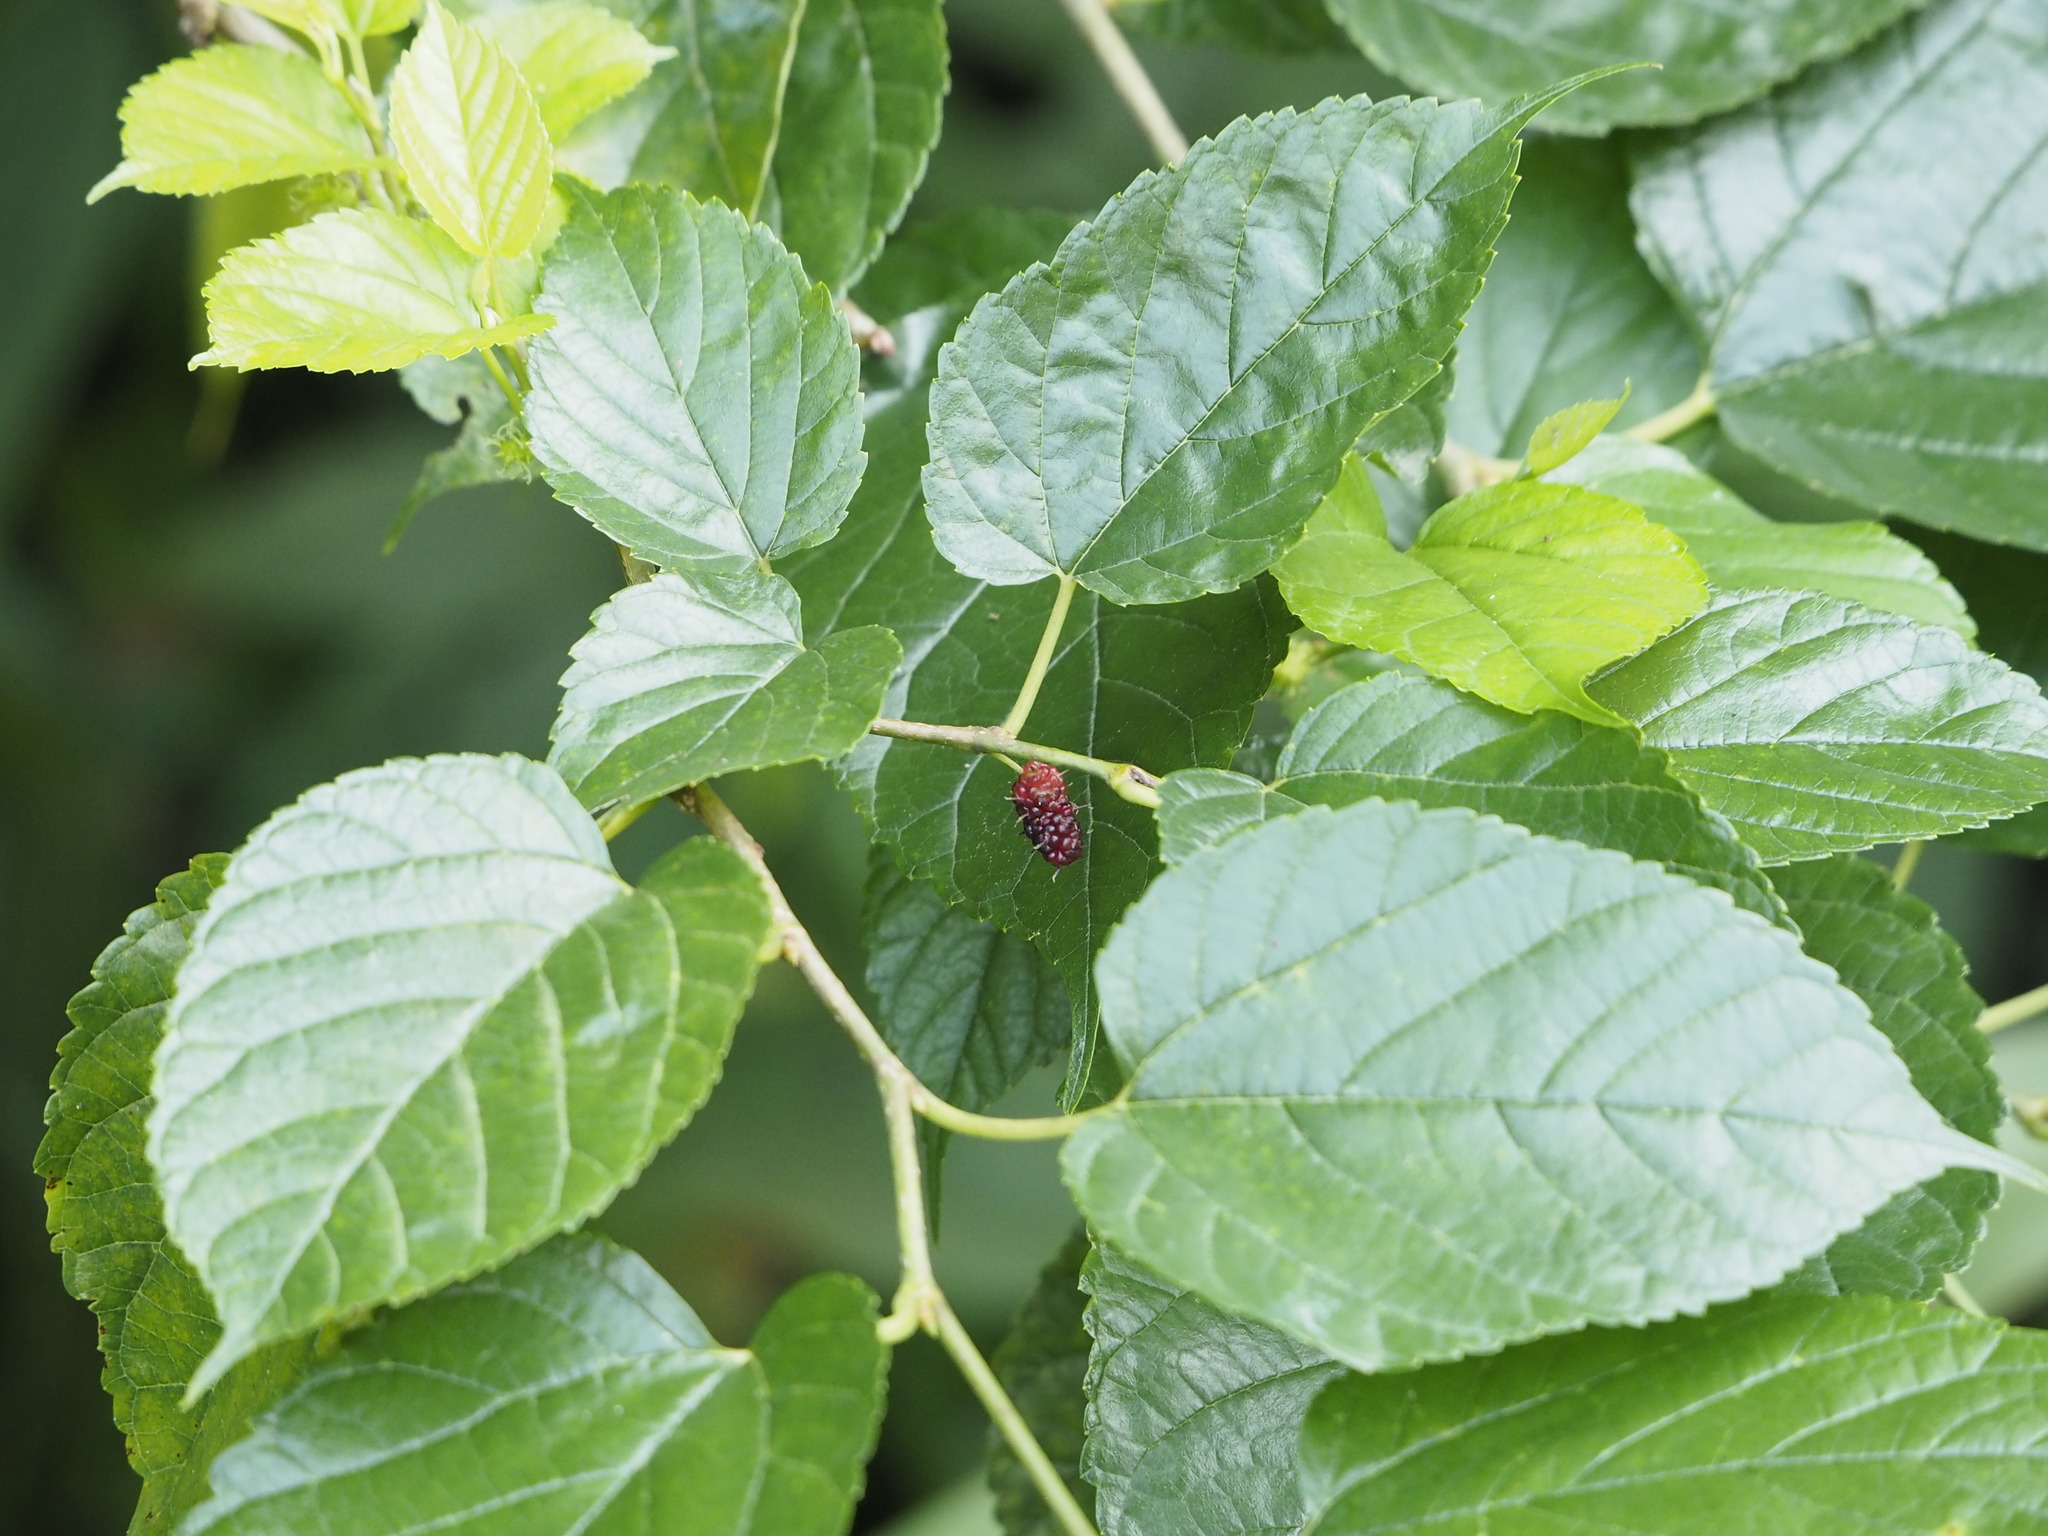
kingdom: Plantae
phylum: Tracheophyta
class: Magnoliopsida
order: Rosales
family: Moraceae
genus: Morus
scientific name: Morus indica
